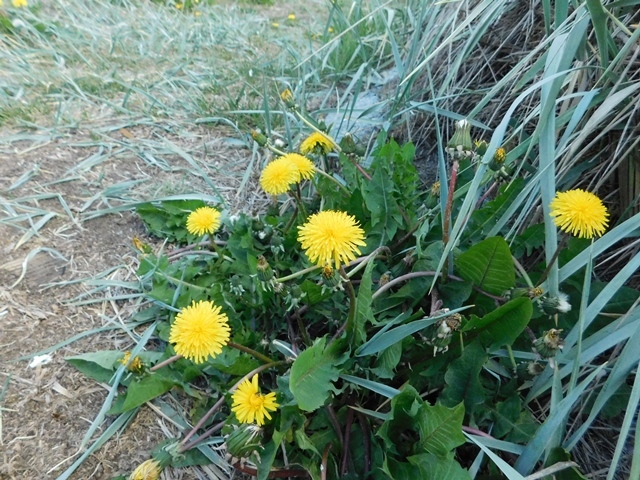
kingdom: Plantae
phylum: Tracheophyta
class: Magnoliopsida
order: Asterales
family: Asteraceae
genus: Taraxacum
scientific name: Taraxacum officinale
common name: Common dandelion
